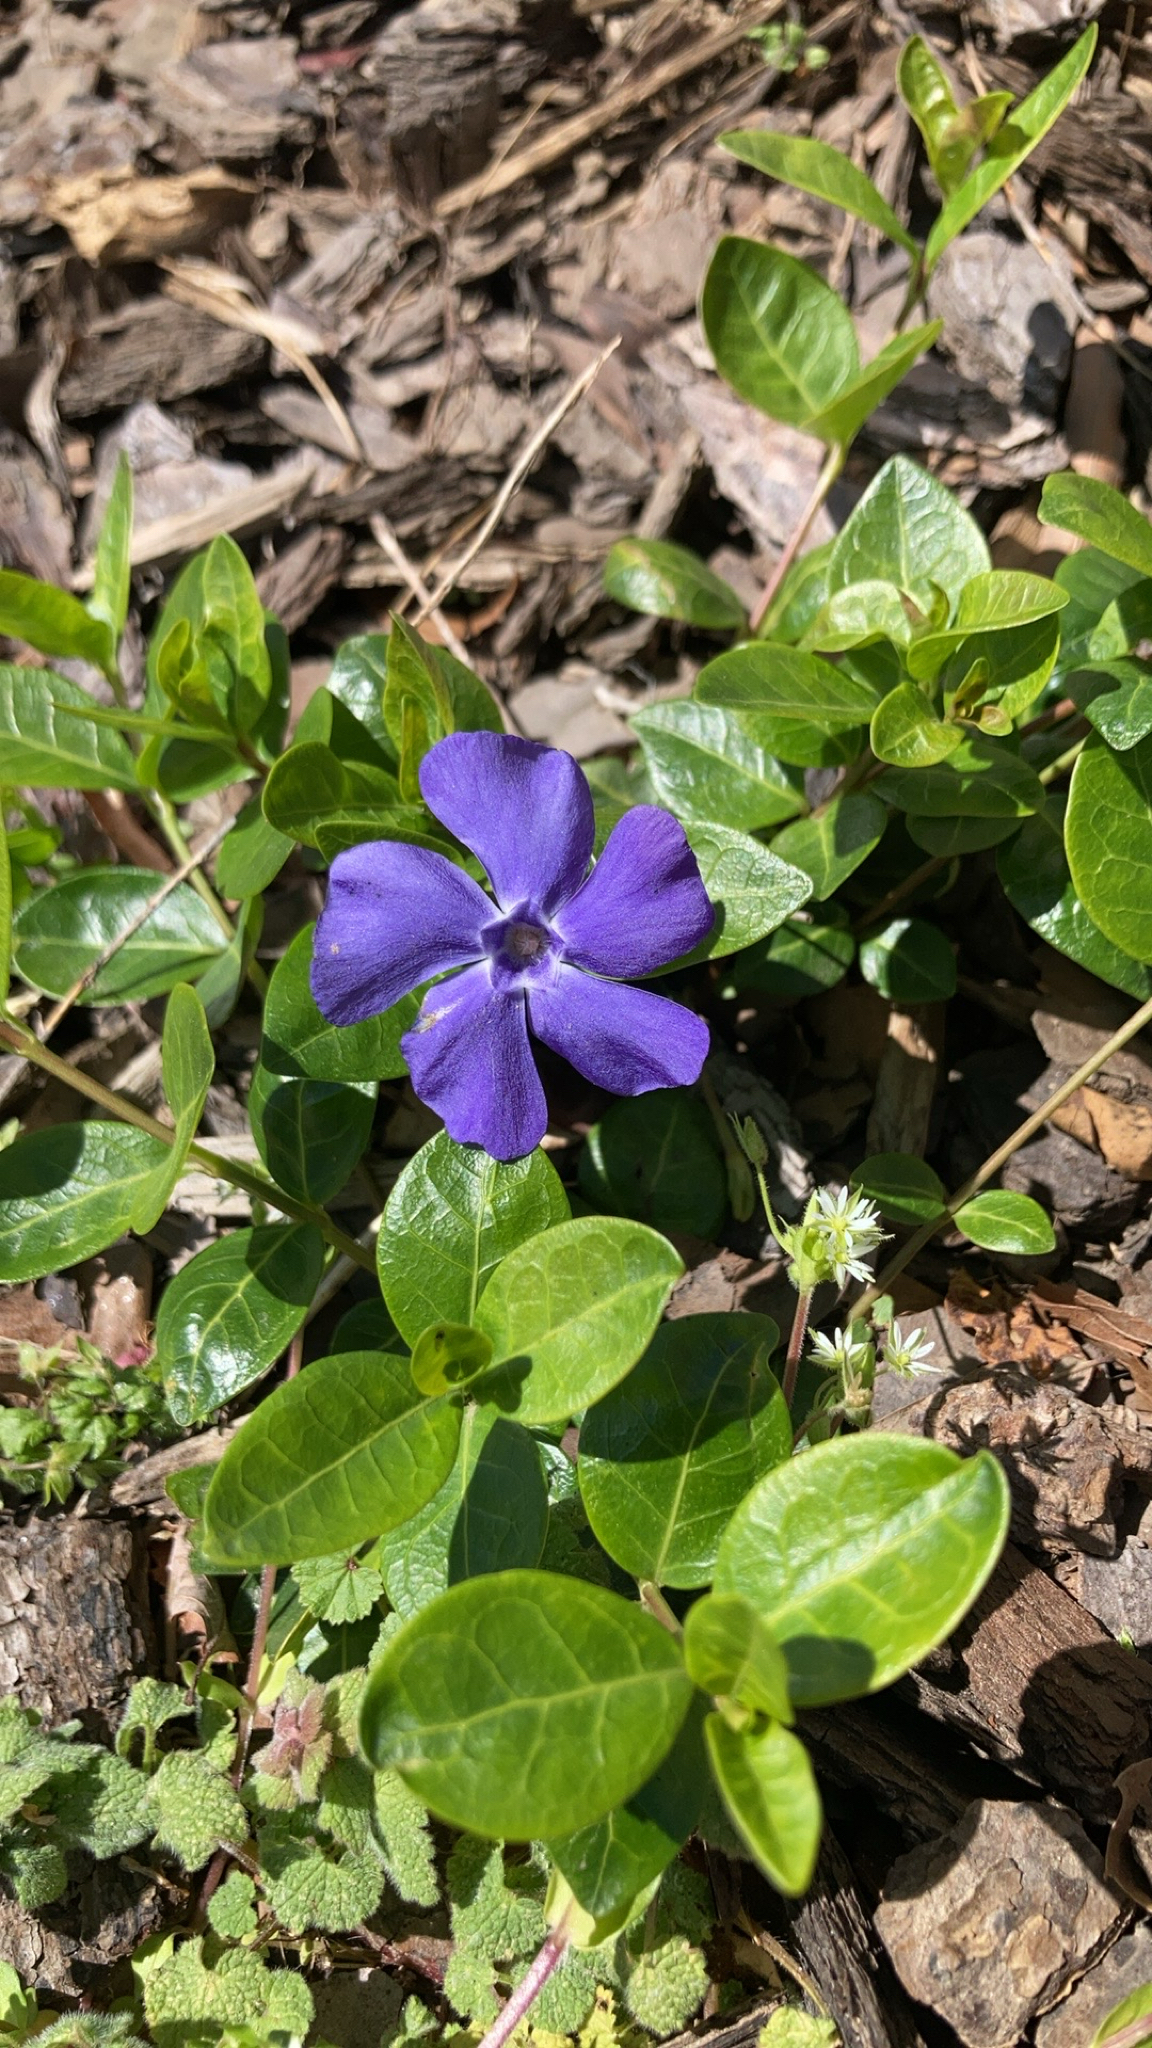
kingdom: Plantae
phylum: Tracheophyta
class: Magnoliopsida
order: Gentianales
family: Apocynaceae
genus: Vinca
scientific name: Vinca minor
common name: Lesser periwinkle
